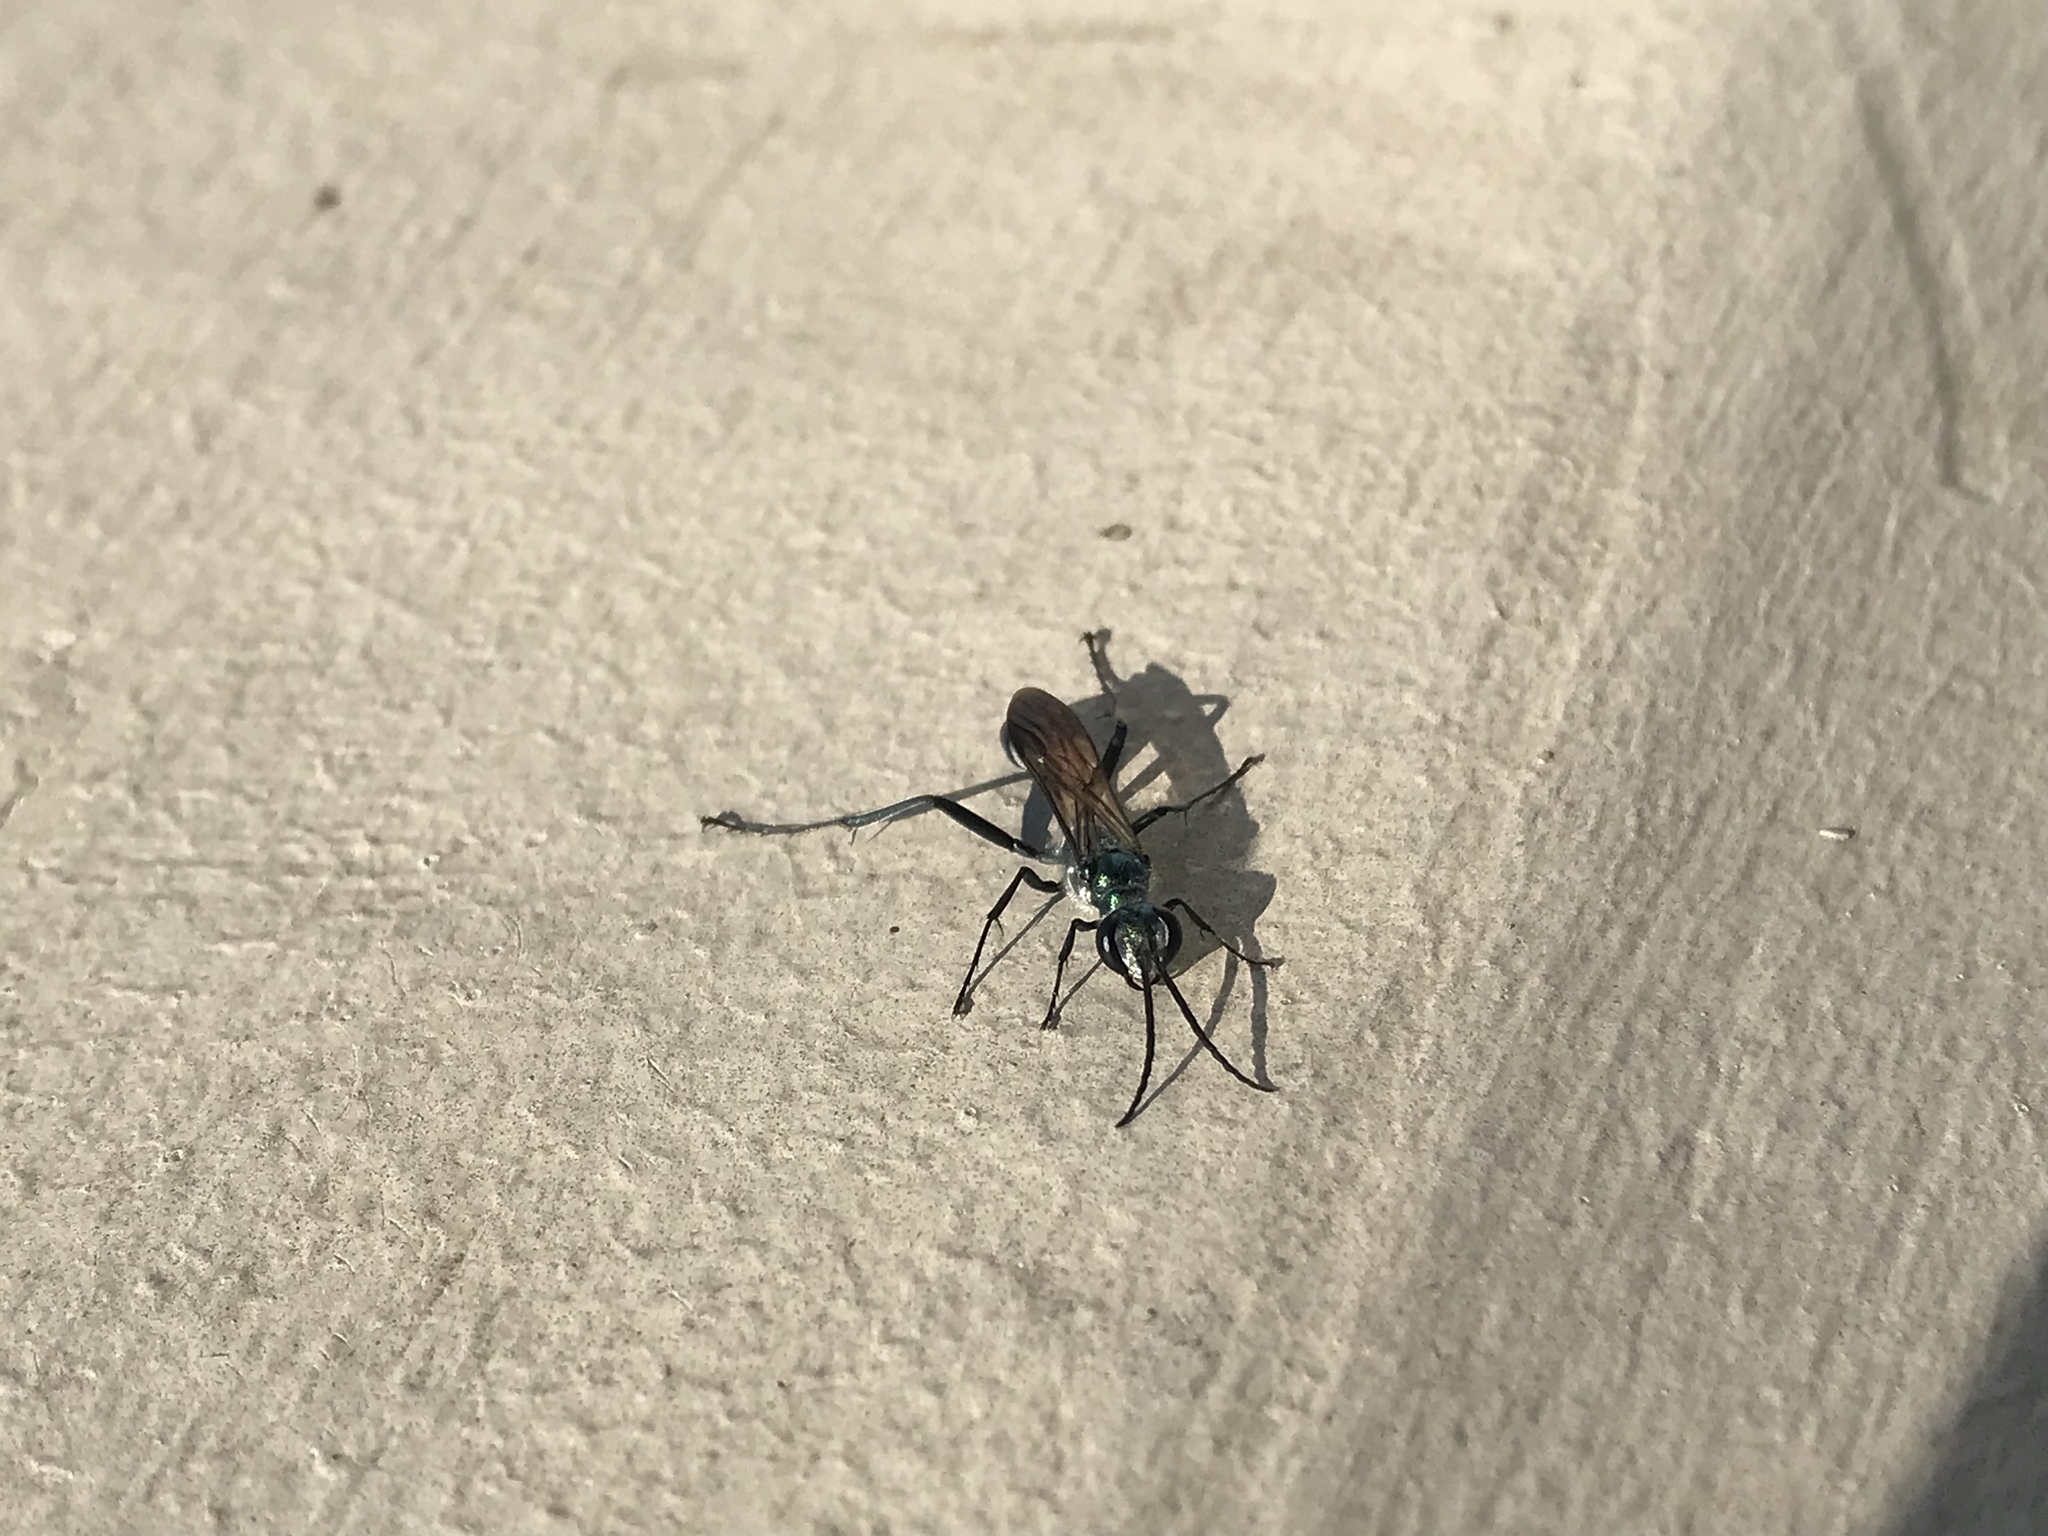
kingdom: Animalia
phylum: Arthropoda
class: Insecta
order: Hymenoptera
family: Sphecidae
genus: Chalybion
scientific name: Chalybion zimmermanni
